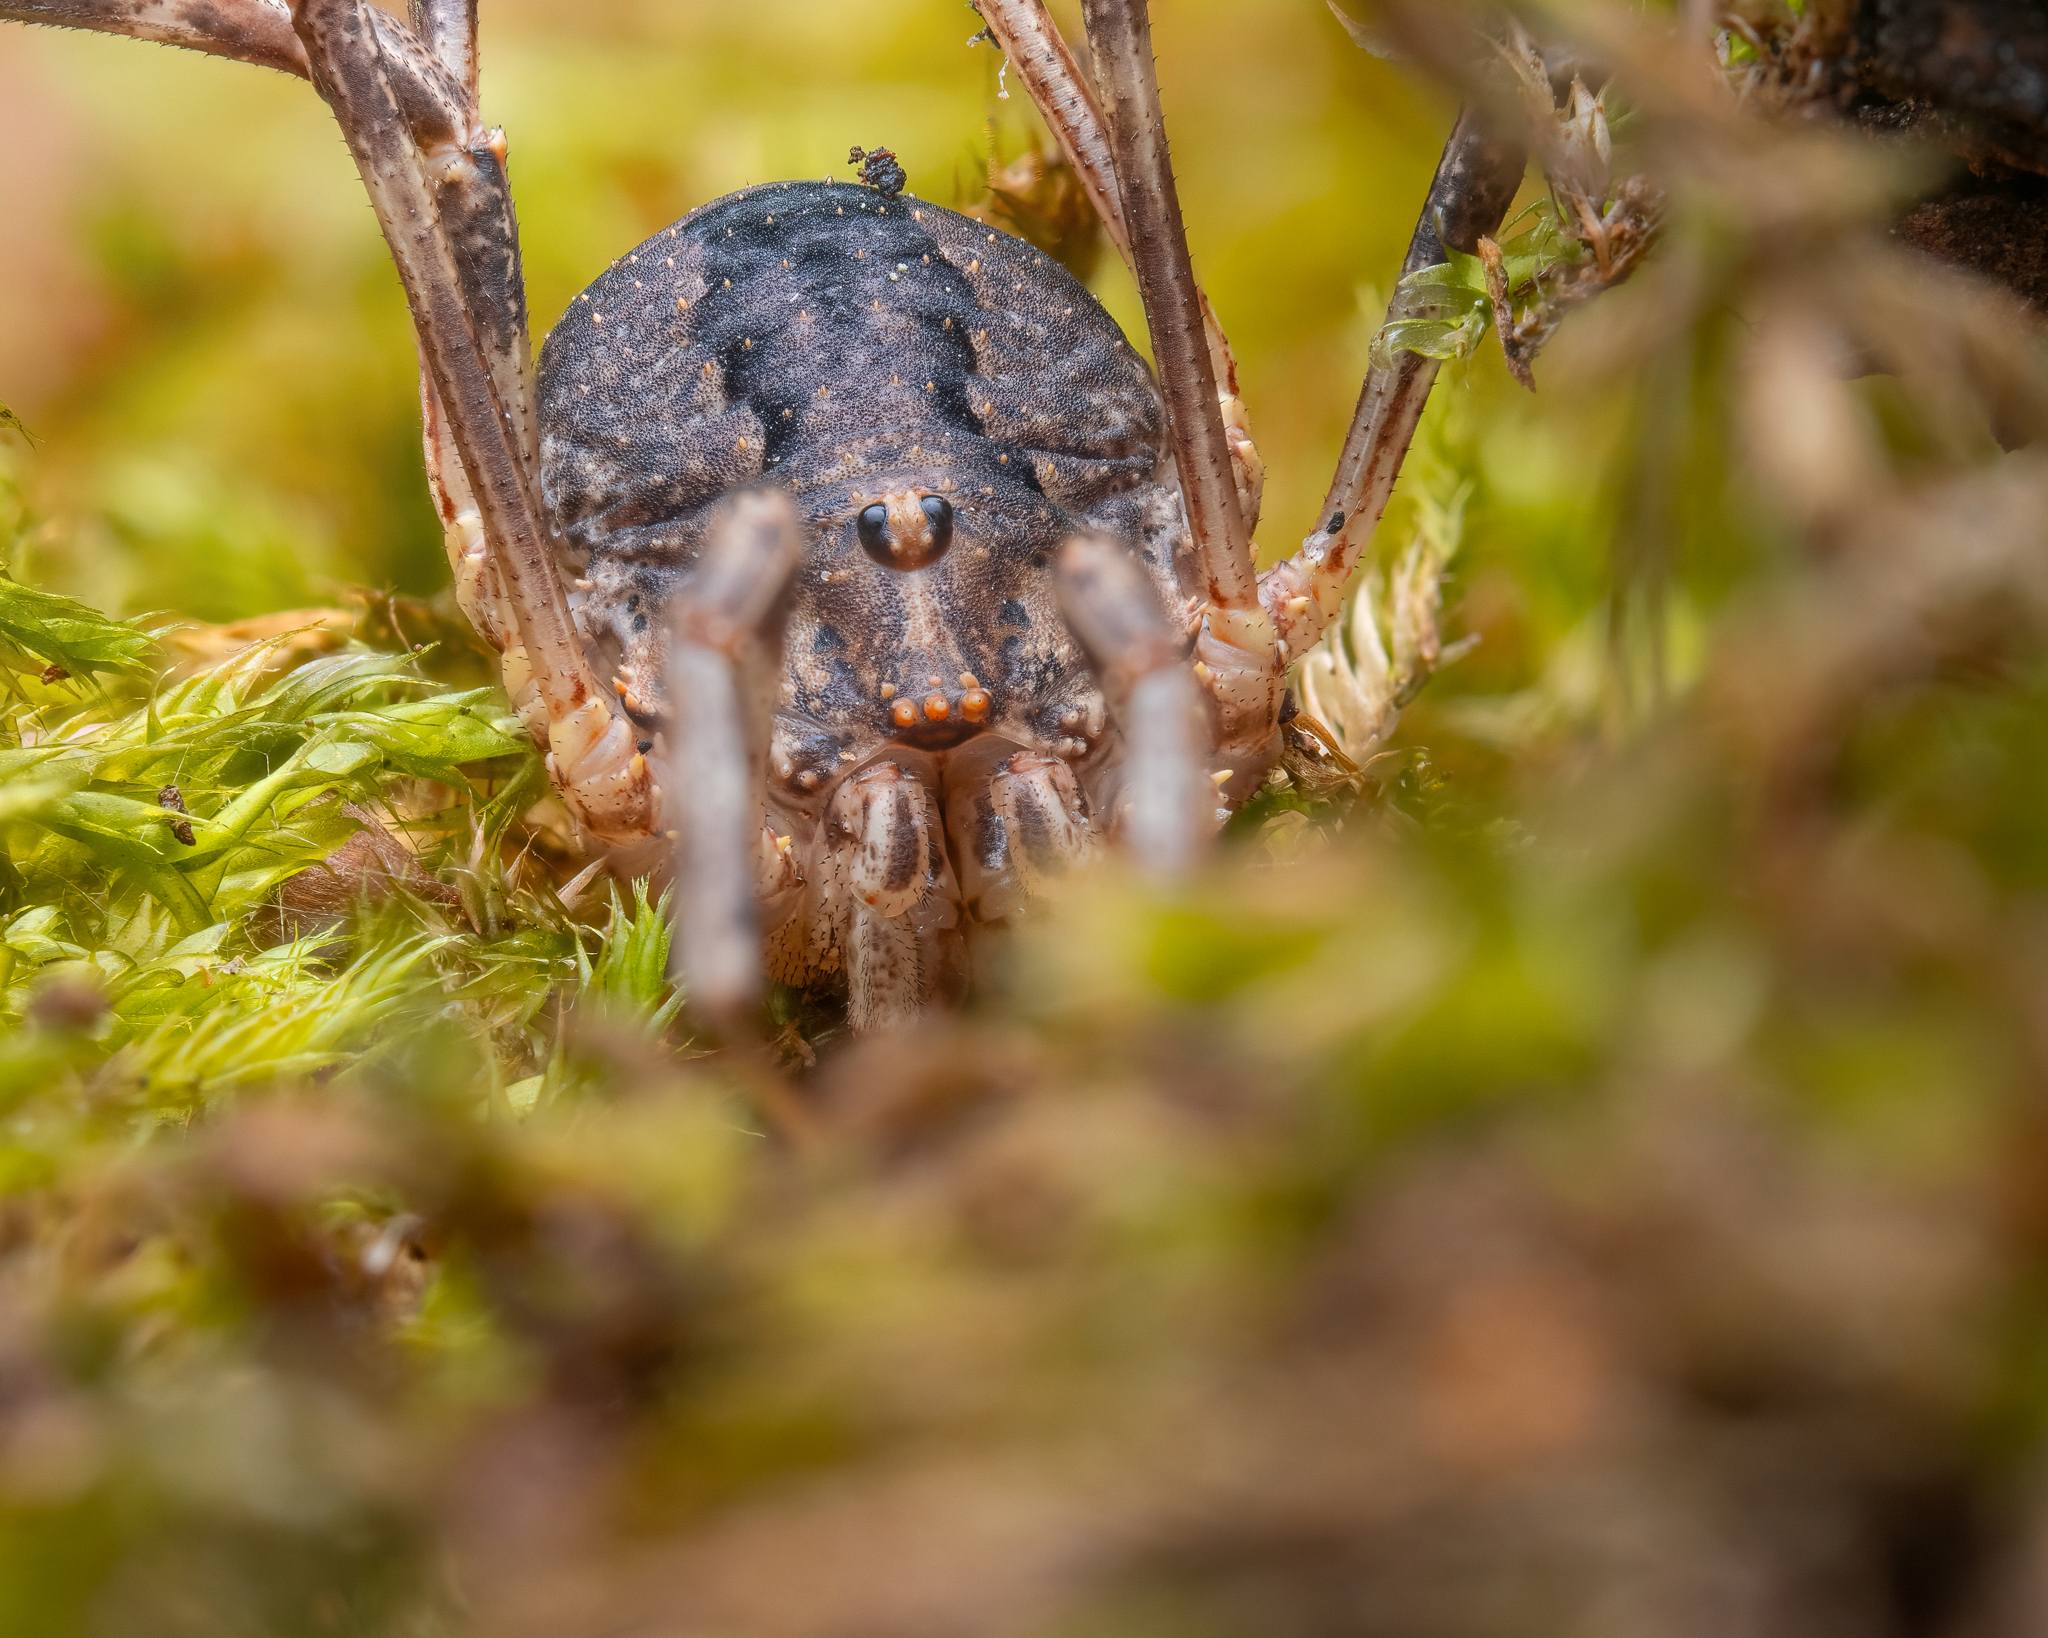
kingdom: Animalia
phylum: Arthropoda
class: Arachnida
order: Opiliones
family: Phalangiidae
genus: Odiellus
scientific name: Odiellus spinosus
